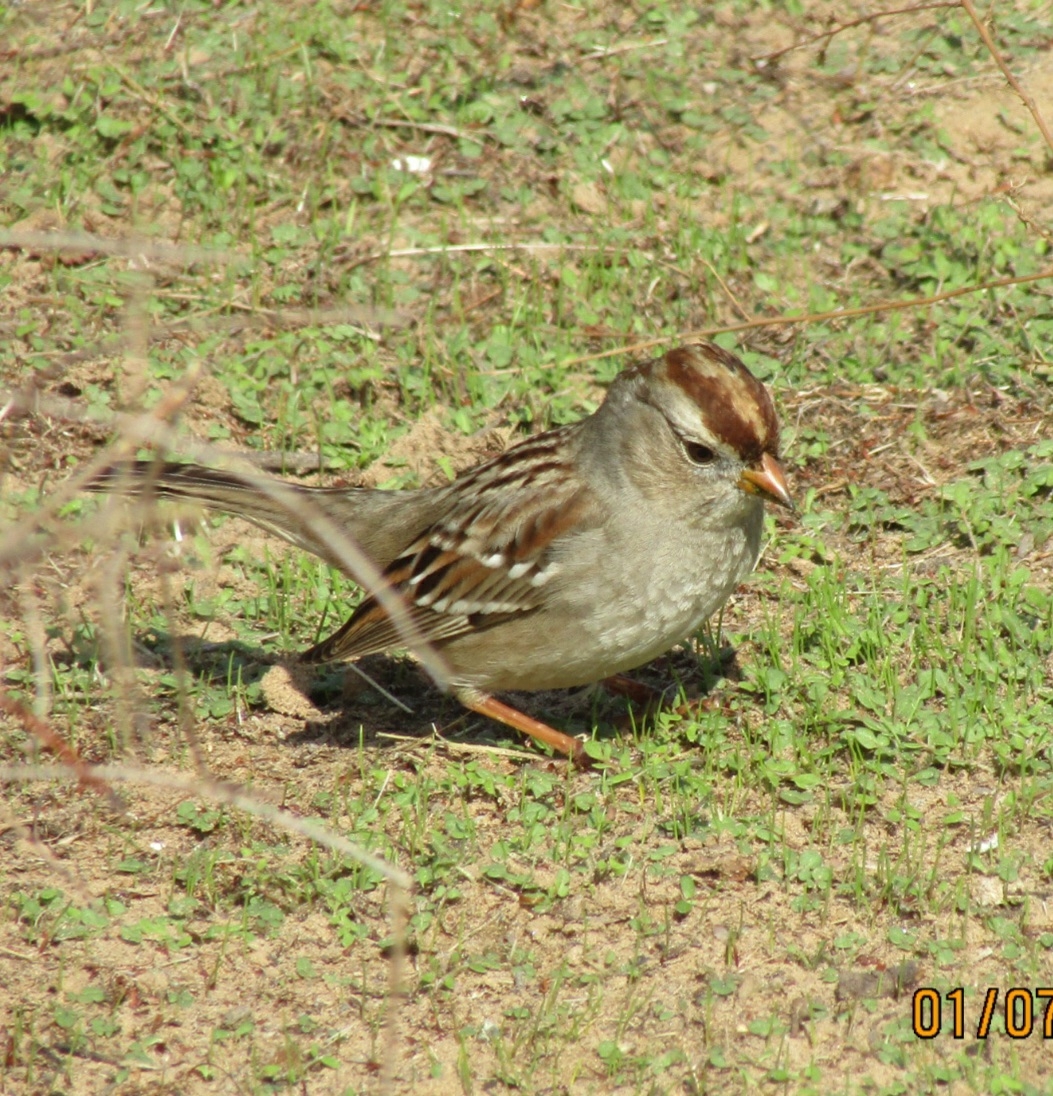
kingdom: Animalia
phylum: Chordata
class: Aves
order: Passeriformes
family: Passerellidae
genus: Zonotrichia
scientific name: Zonotrichia leucophrys
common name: White-crowned sparrow
